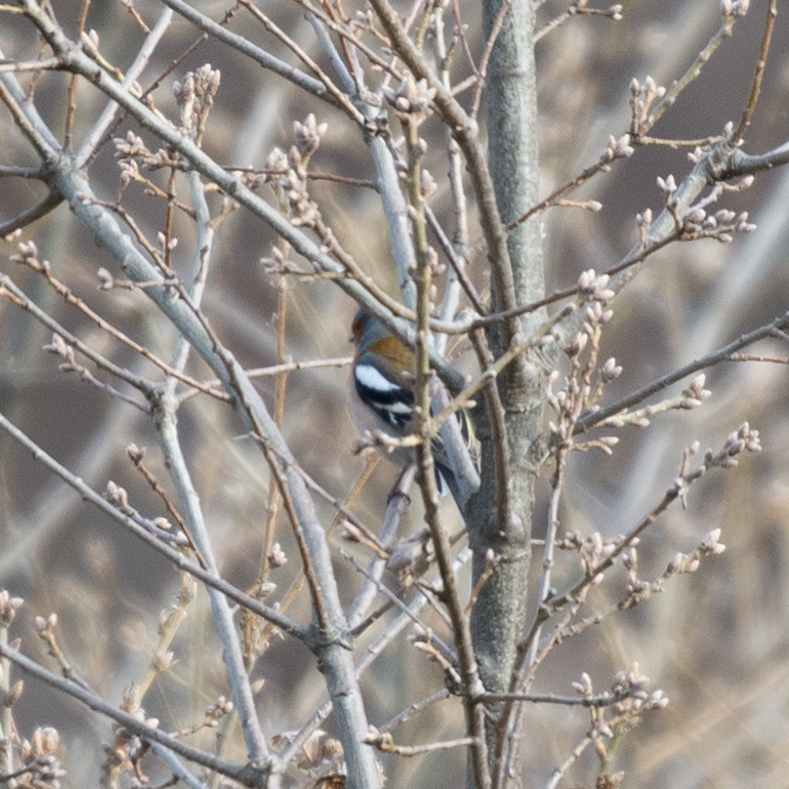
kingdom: Animalia
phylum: Chordata
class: Aves
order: Passeriformes
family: Fringillidae
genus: Fringilla
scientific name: Fringilla coelebs
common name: Common chaffinch
